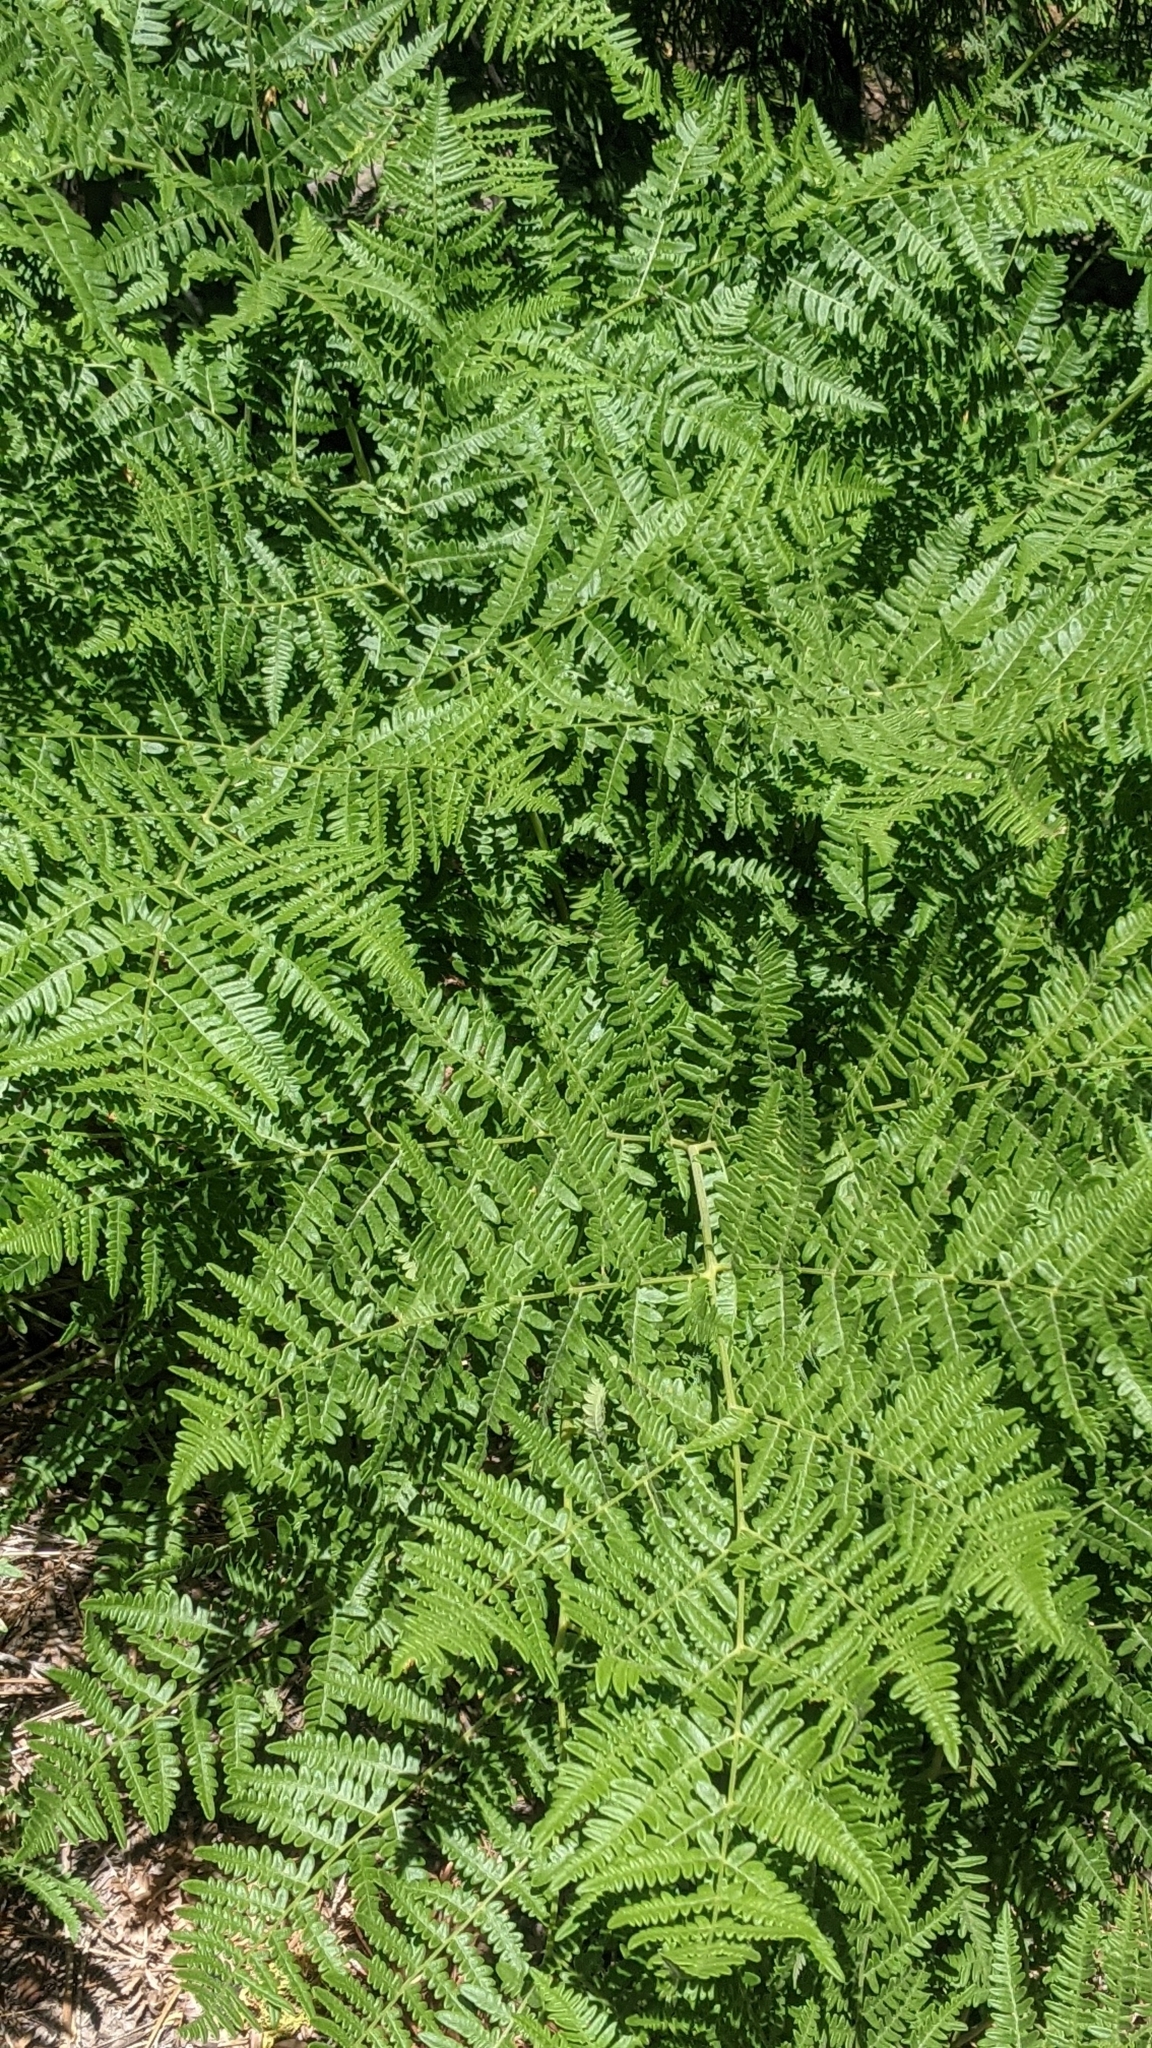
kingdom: Plantae
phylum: Tracheophyta
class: Polypodiopsida
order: Polypodiales
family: Dennstaedtiaceae
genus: Pteridium
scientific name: Pteridium aquilinum
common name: Bracken
